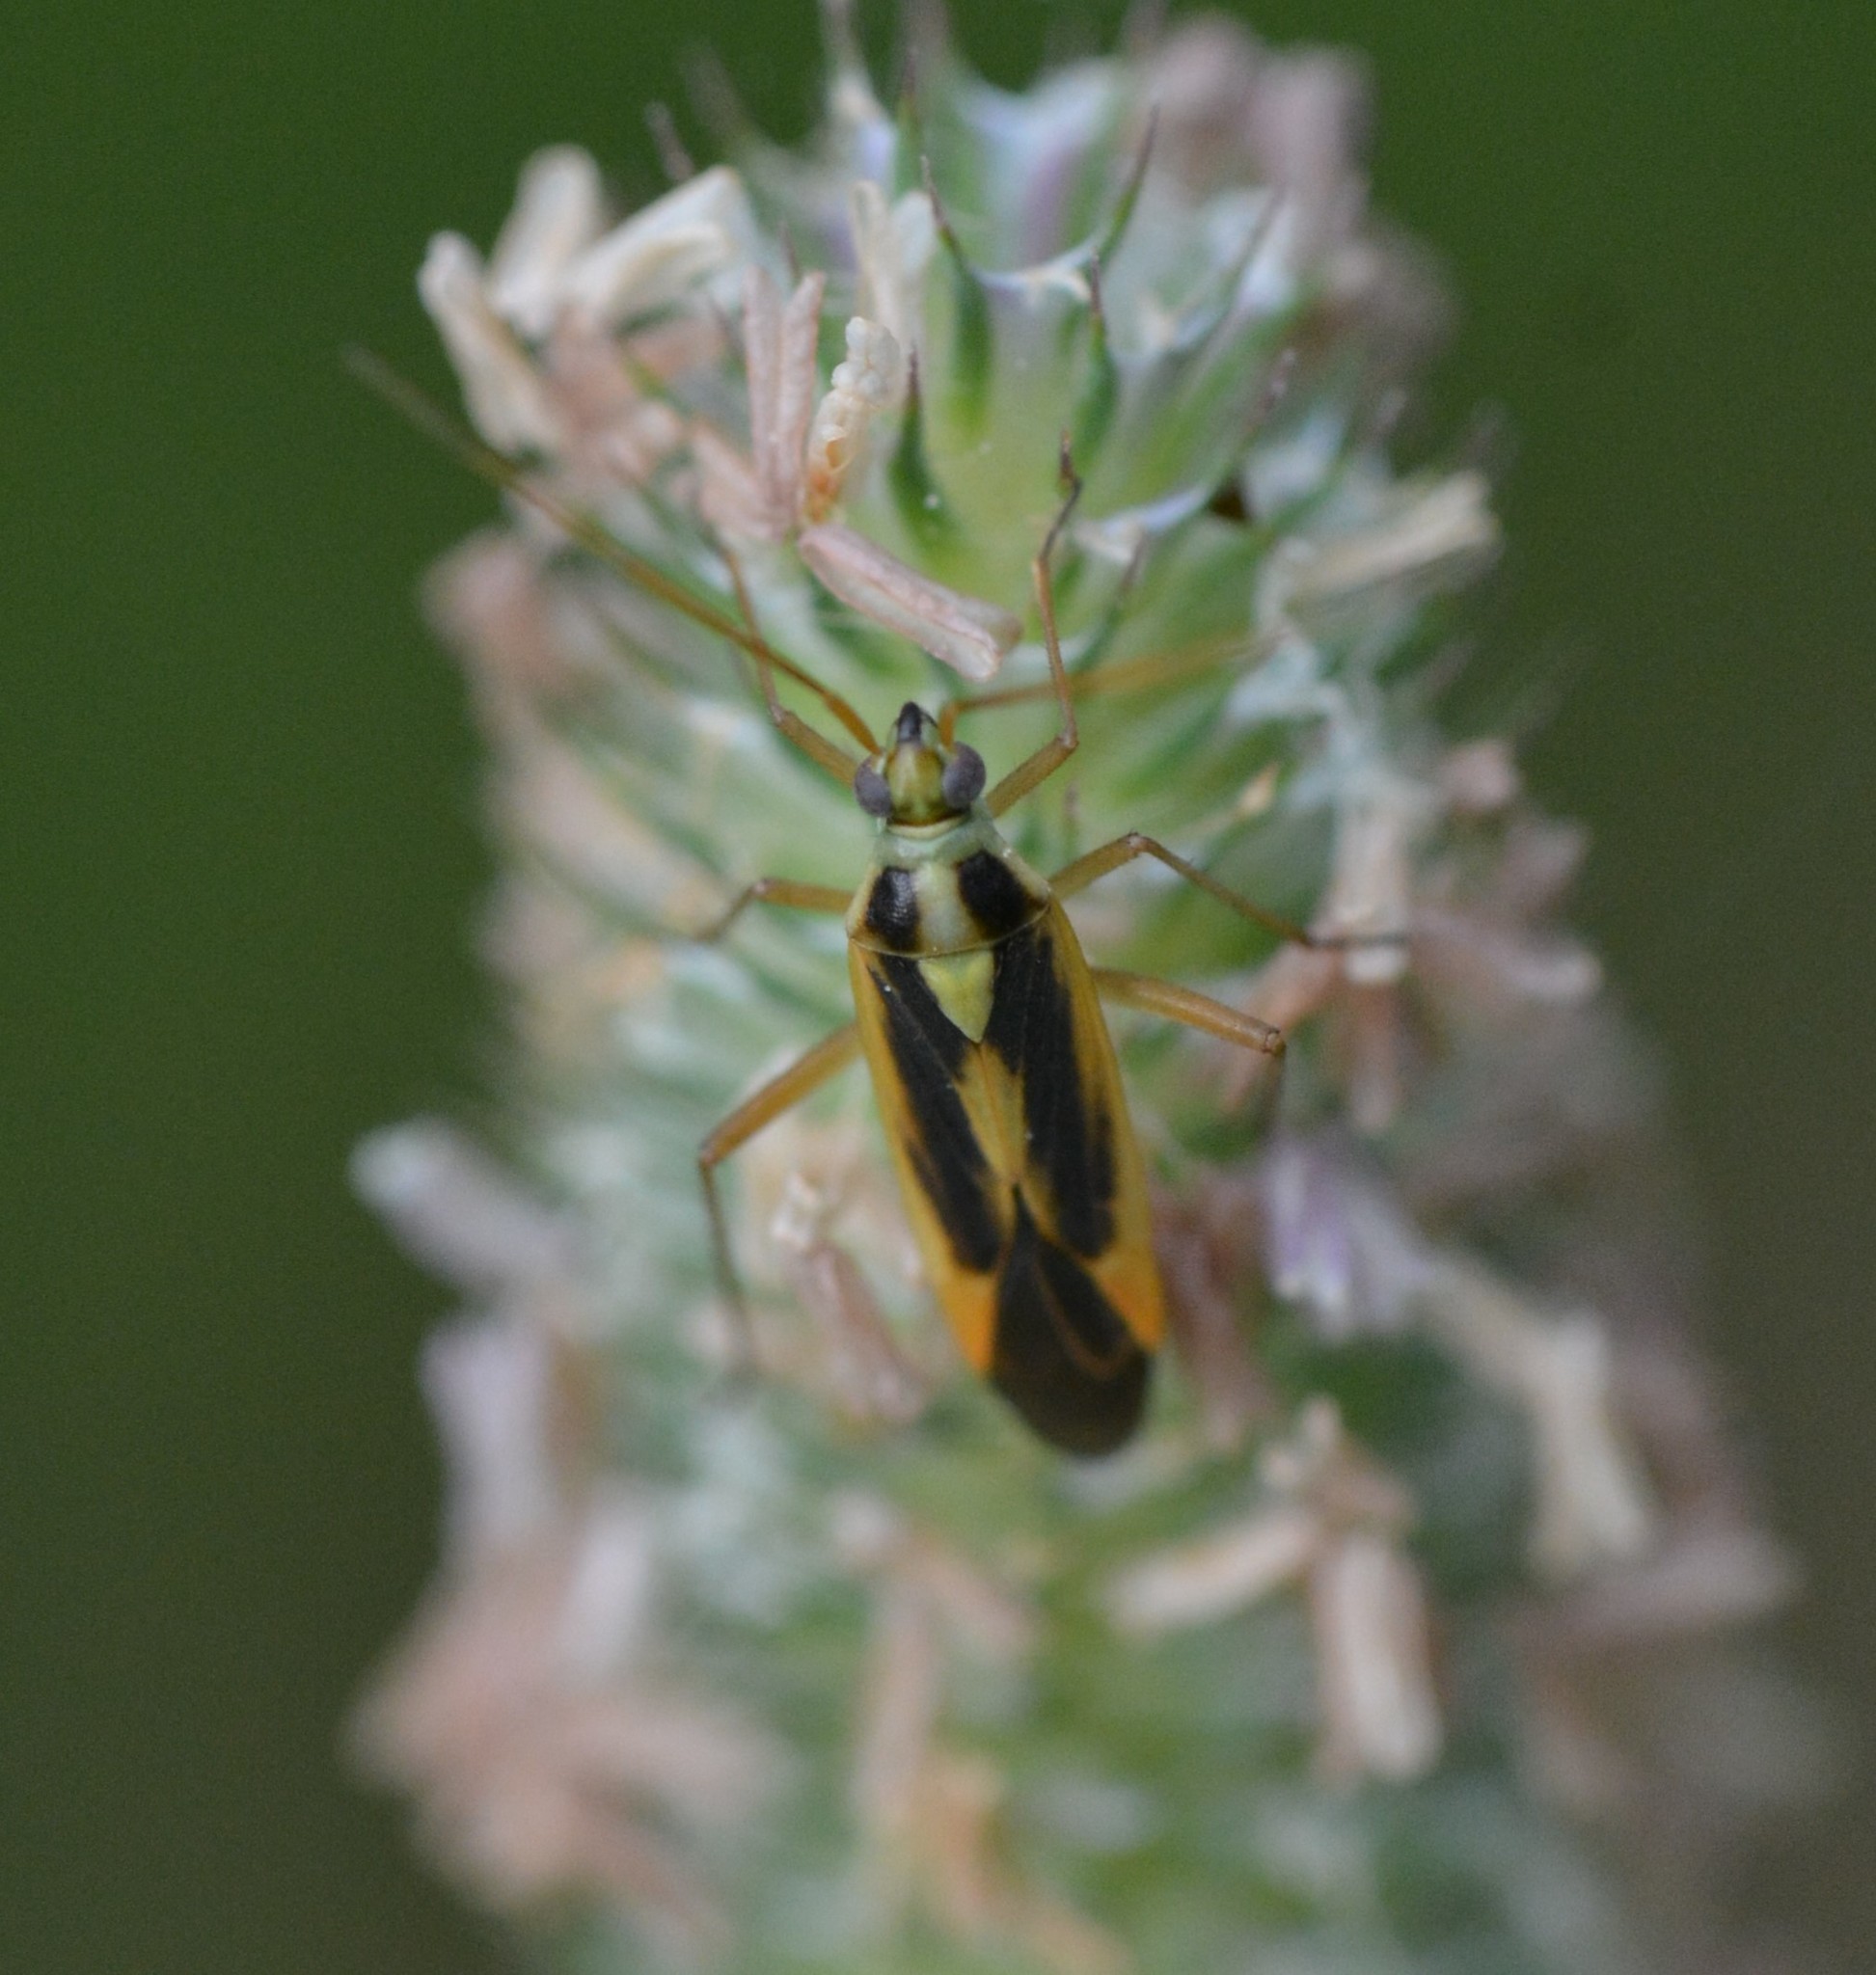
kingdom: Animalia
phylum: Arthropoda
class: Insecta
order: Hemiptera
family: Miridae
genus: Stenotus
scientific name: Stenotus binotatus
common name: Plant bug
